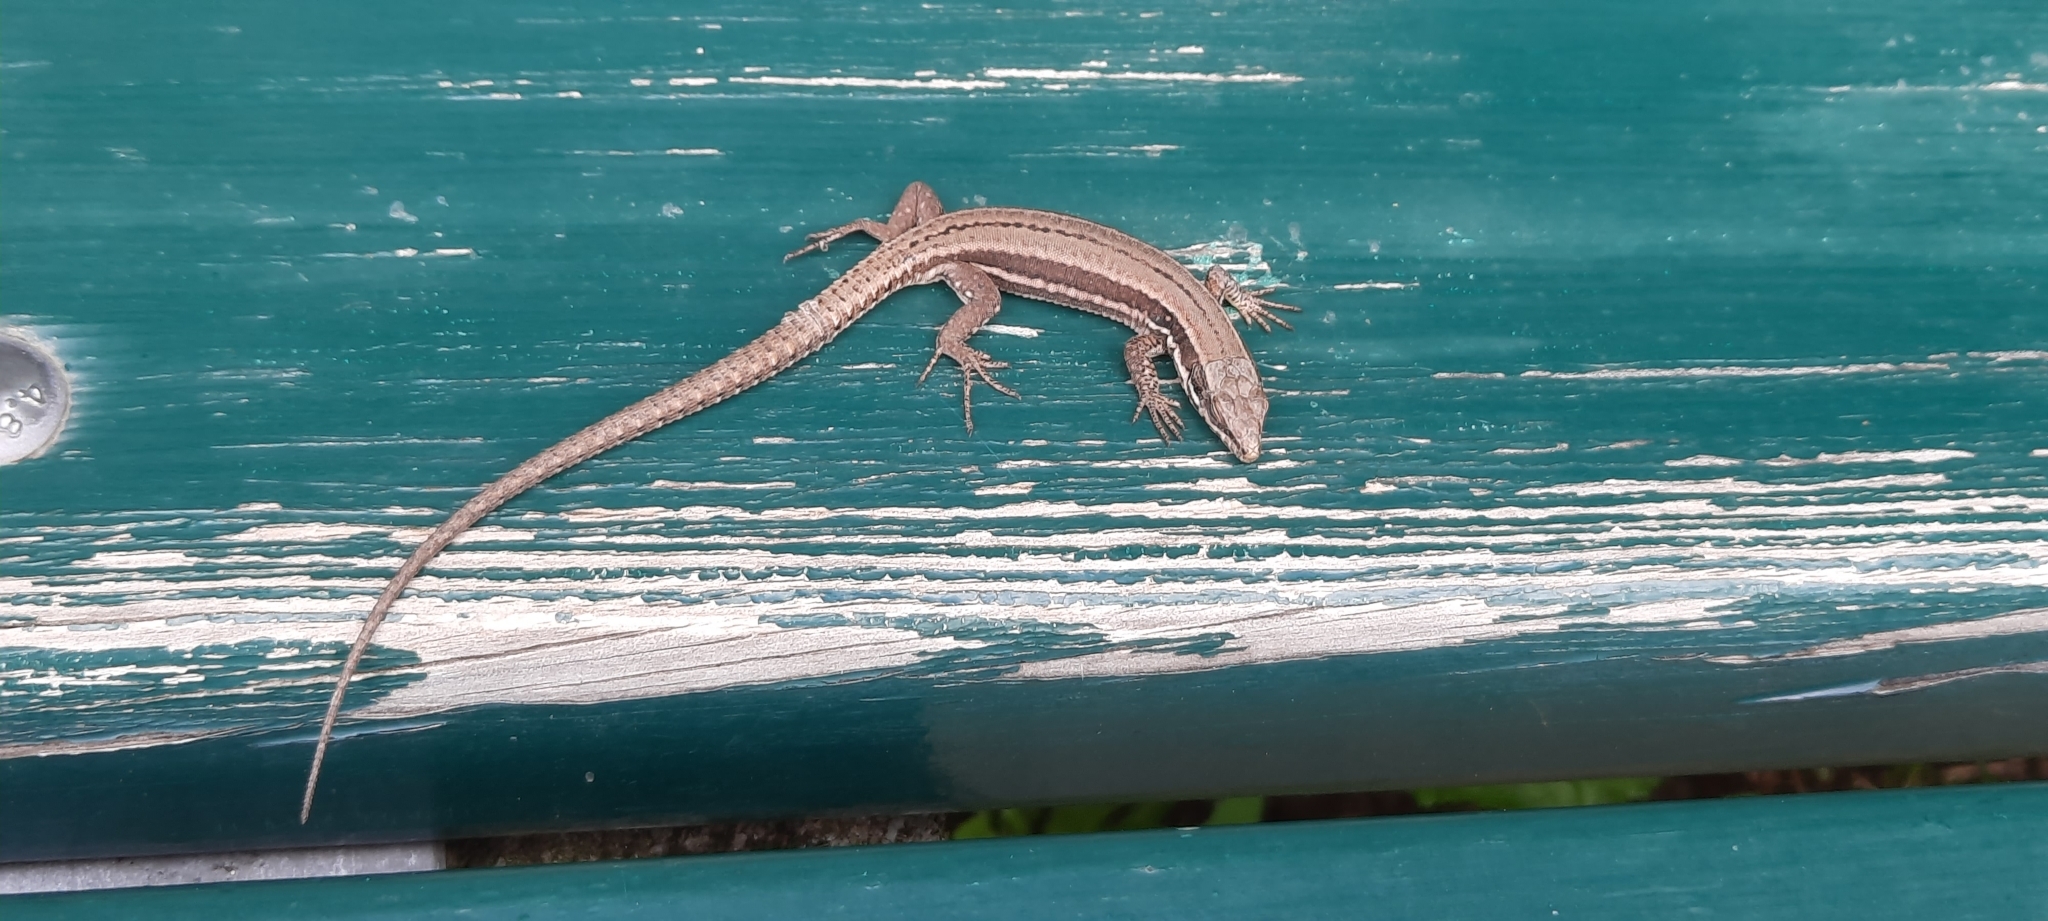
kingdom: Animalia
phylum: Chordata
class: Squamata
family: Lacertidae
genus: Podarcis
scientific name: Podarcis muralis
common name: Common wall lizard
